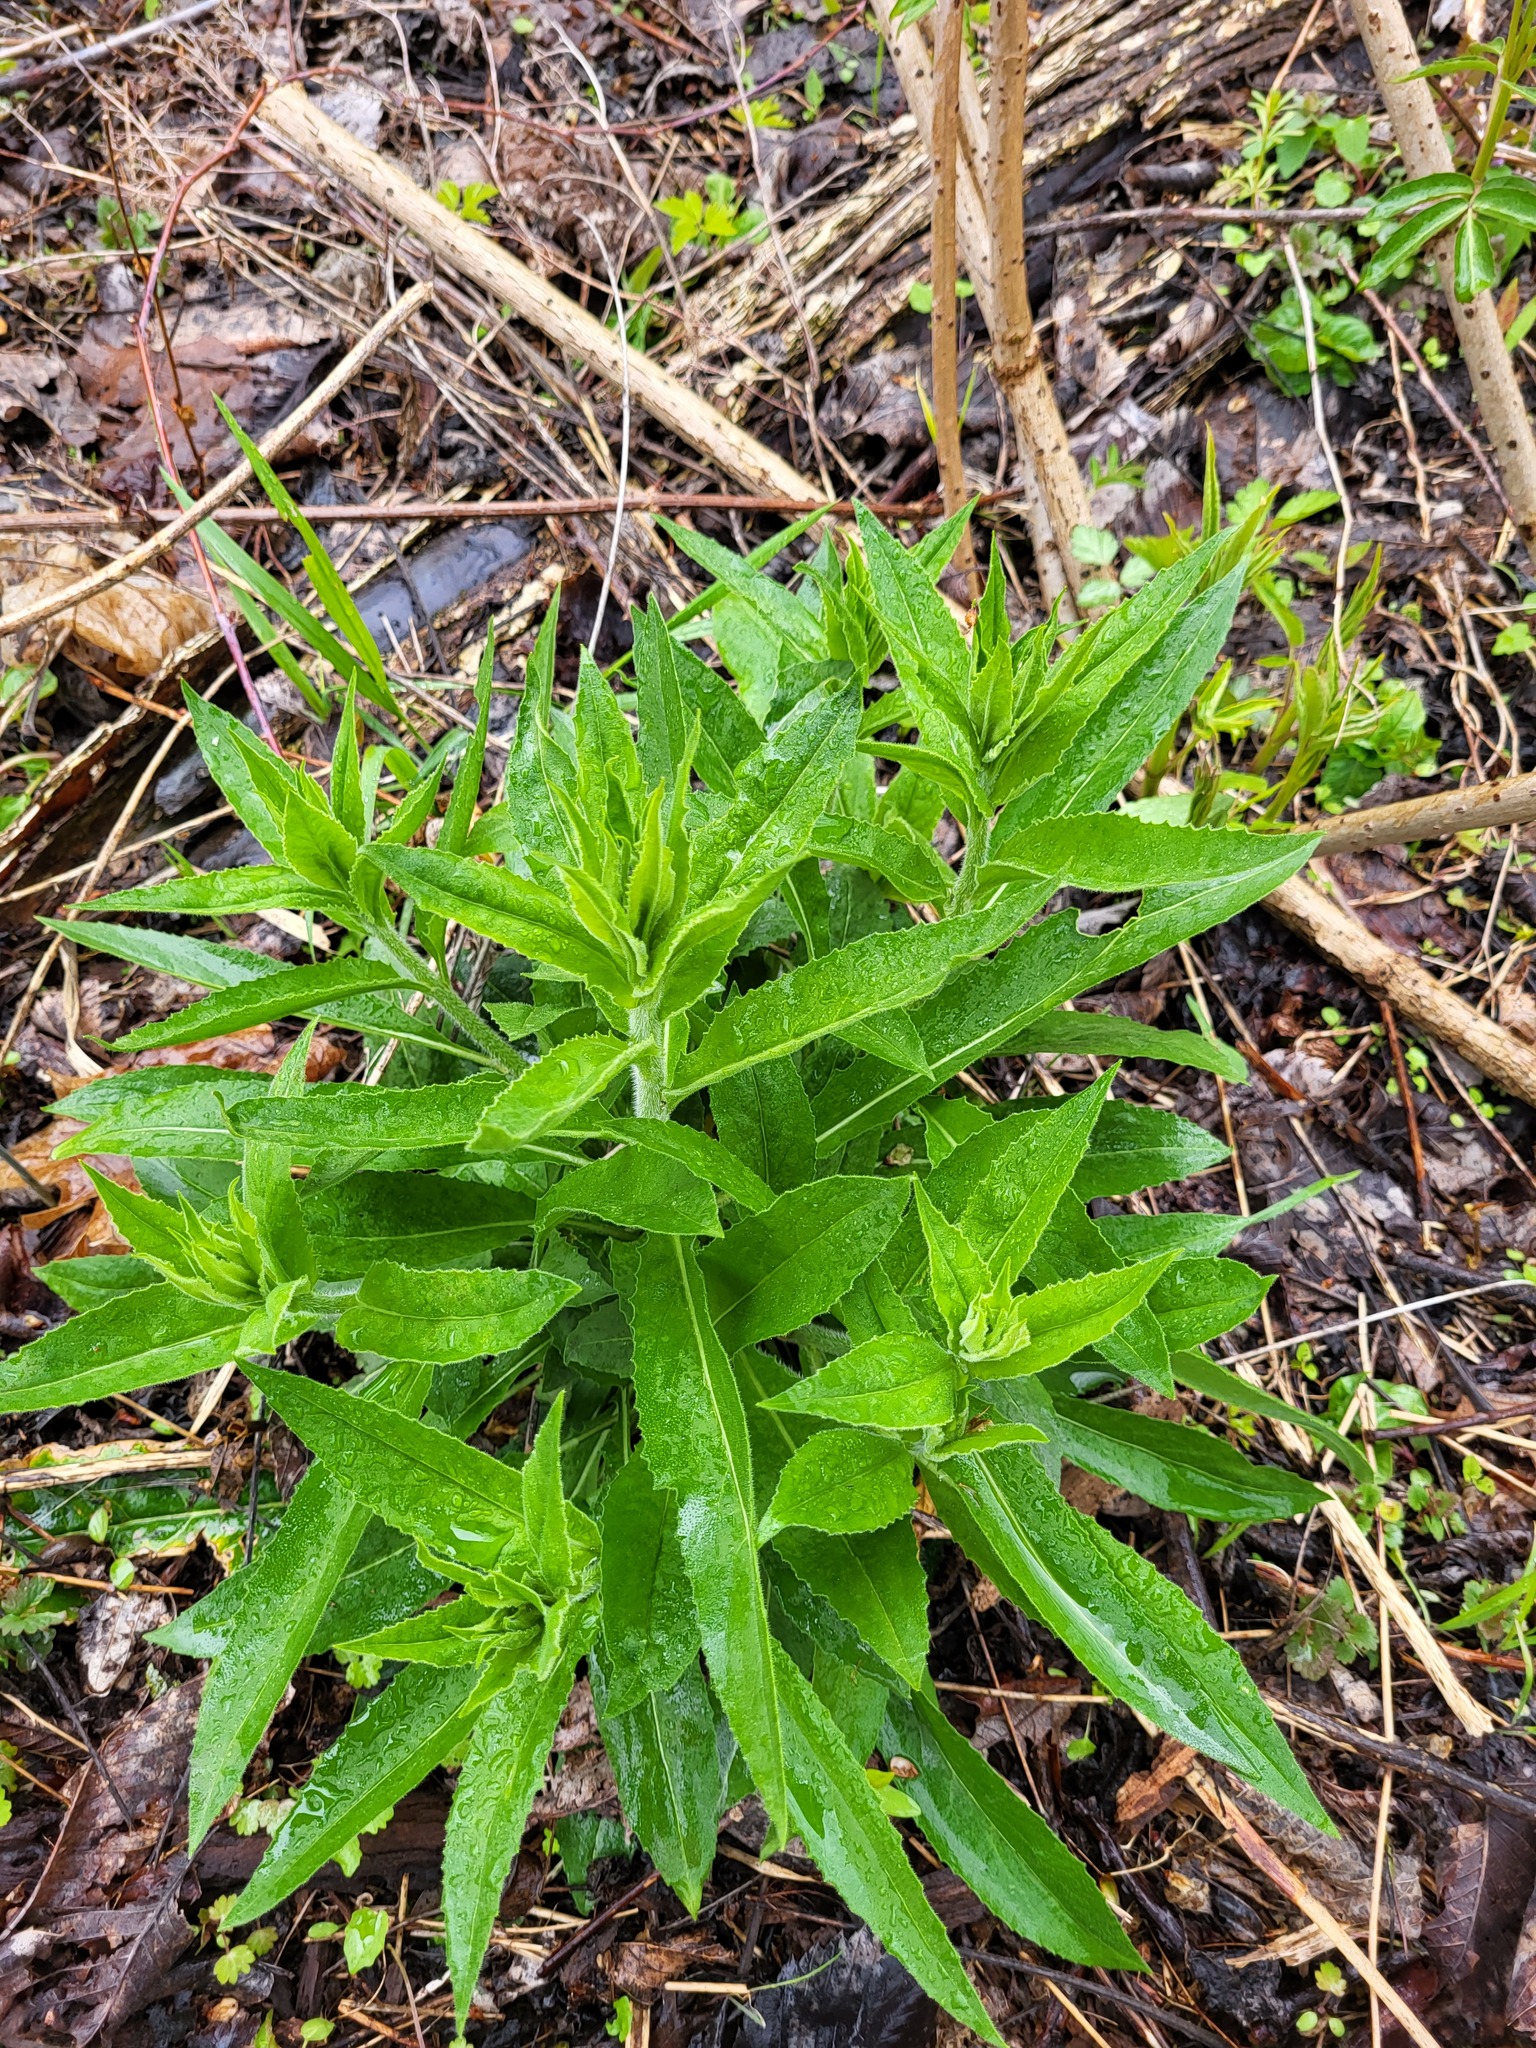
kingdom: Plantae
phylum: Tracheophyta
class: Magnoliopsida
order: Brassicales
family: Brassicaceae
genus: Hesperis
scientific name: Hesperis matronalis
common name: Dame's-violet
